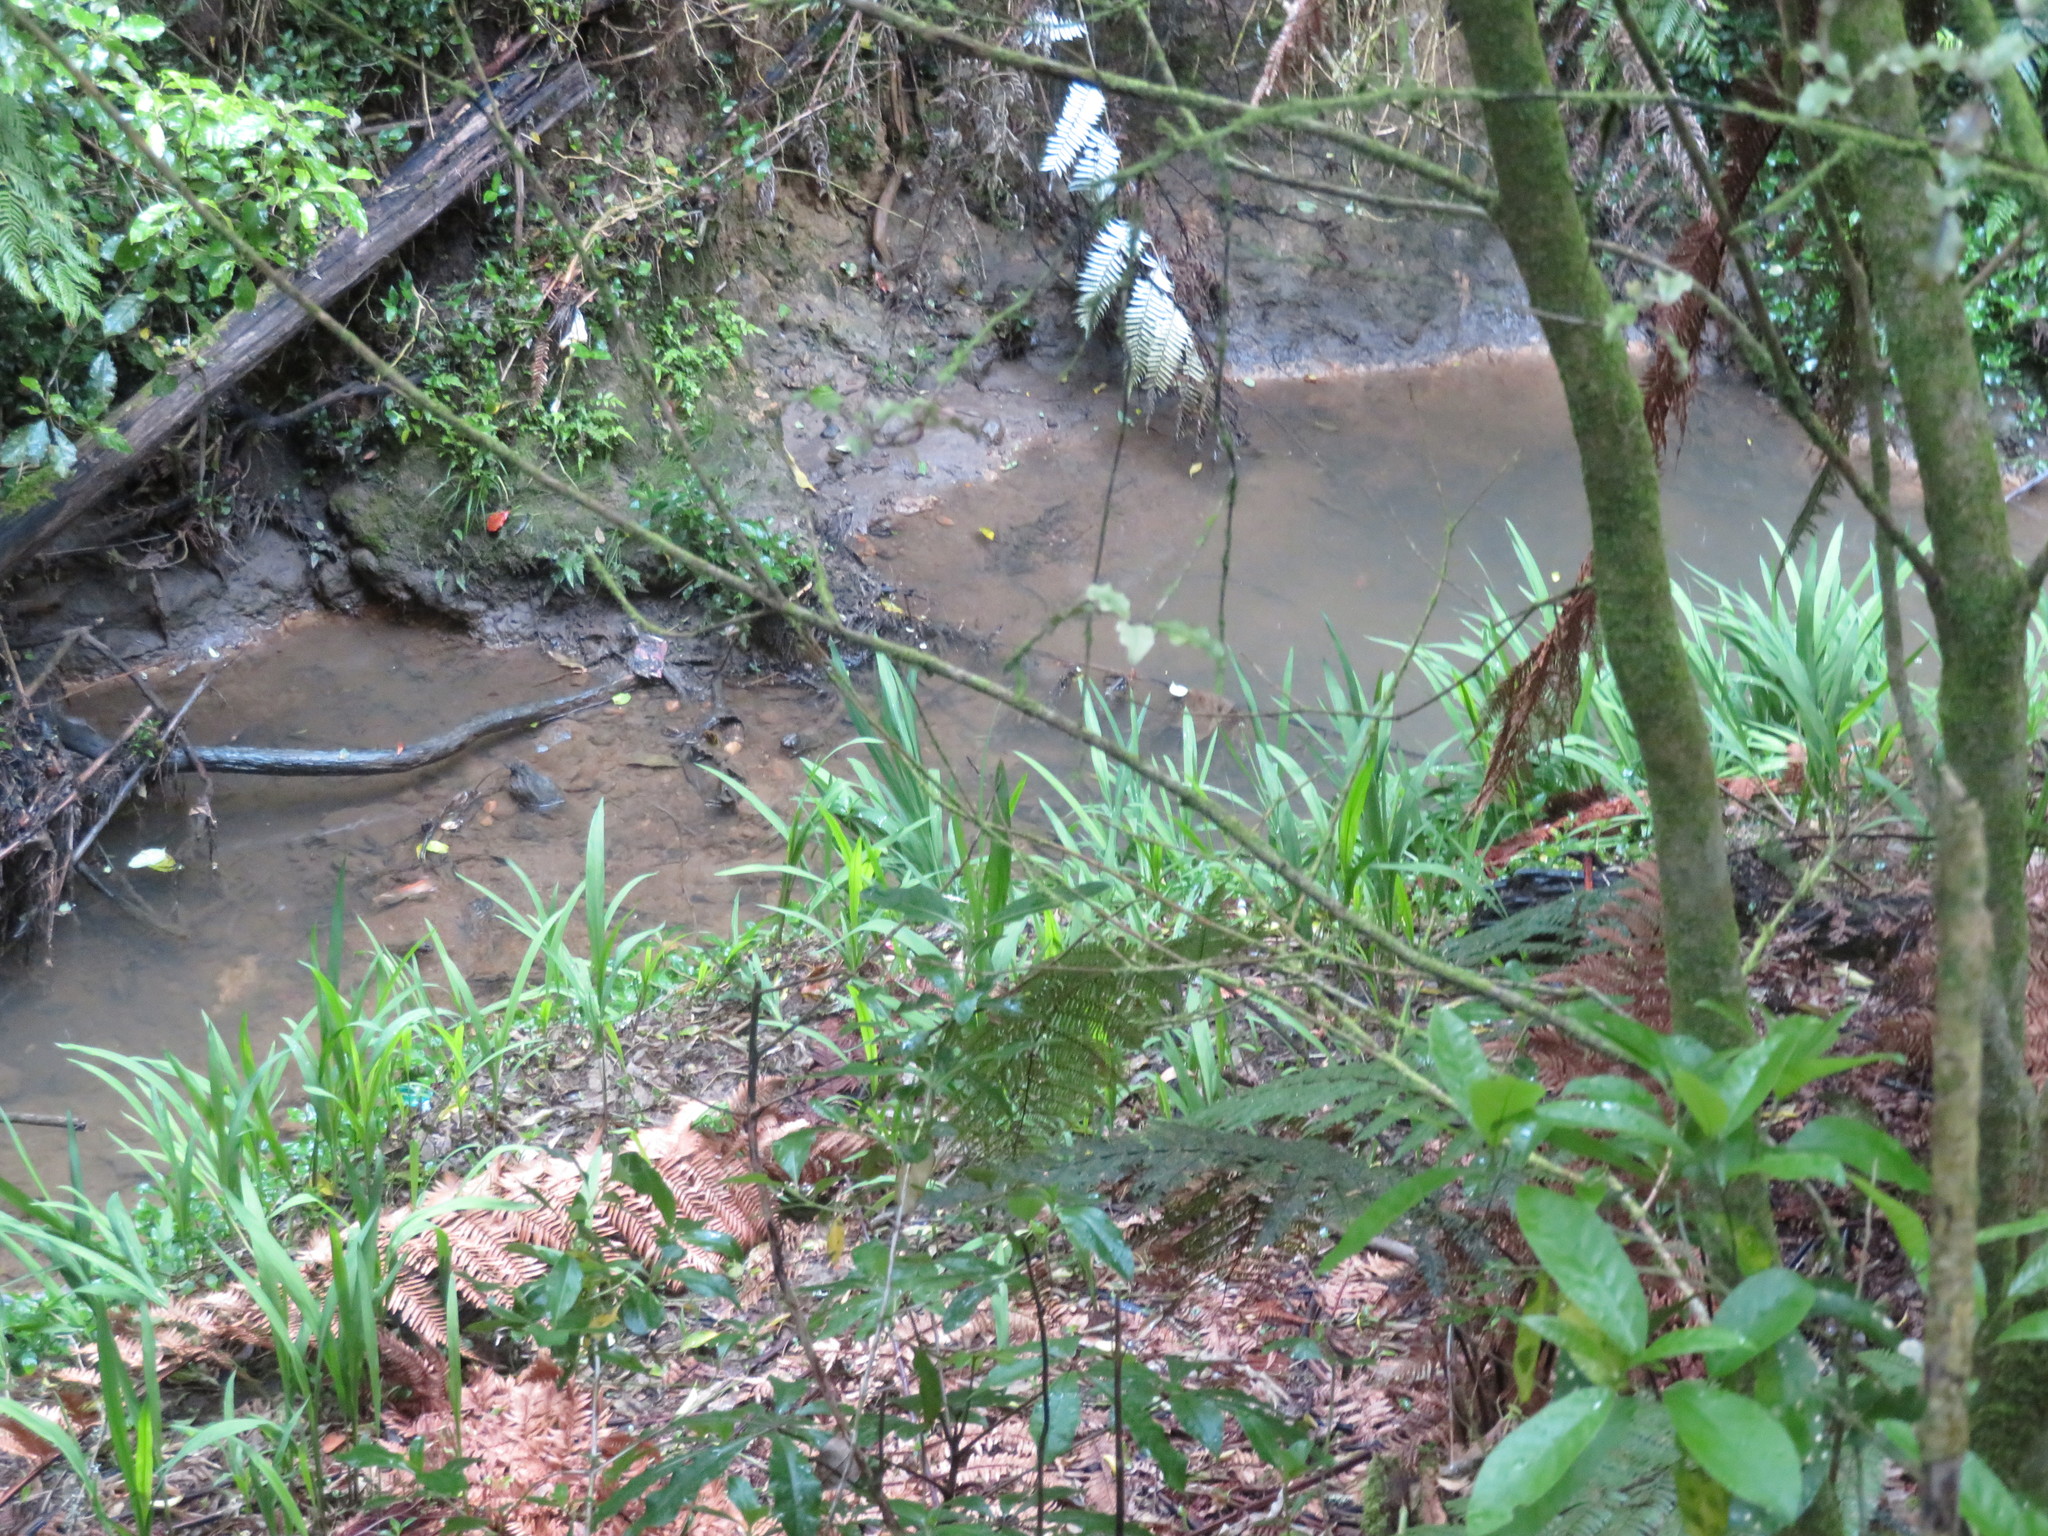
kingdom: Plantae
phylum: Tracheophyta
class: Liliopsida
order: Asparagales
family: Iridaceae
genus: Crocosmia
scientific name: Crocosmia crocosmiiflora
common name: Montbretia
